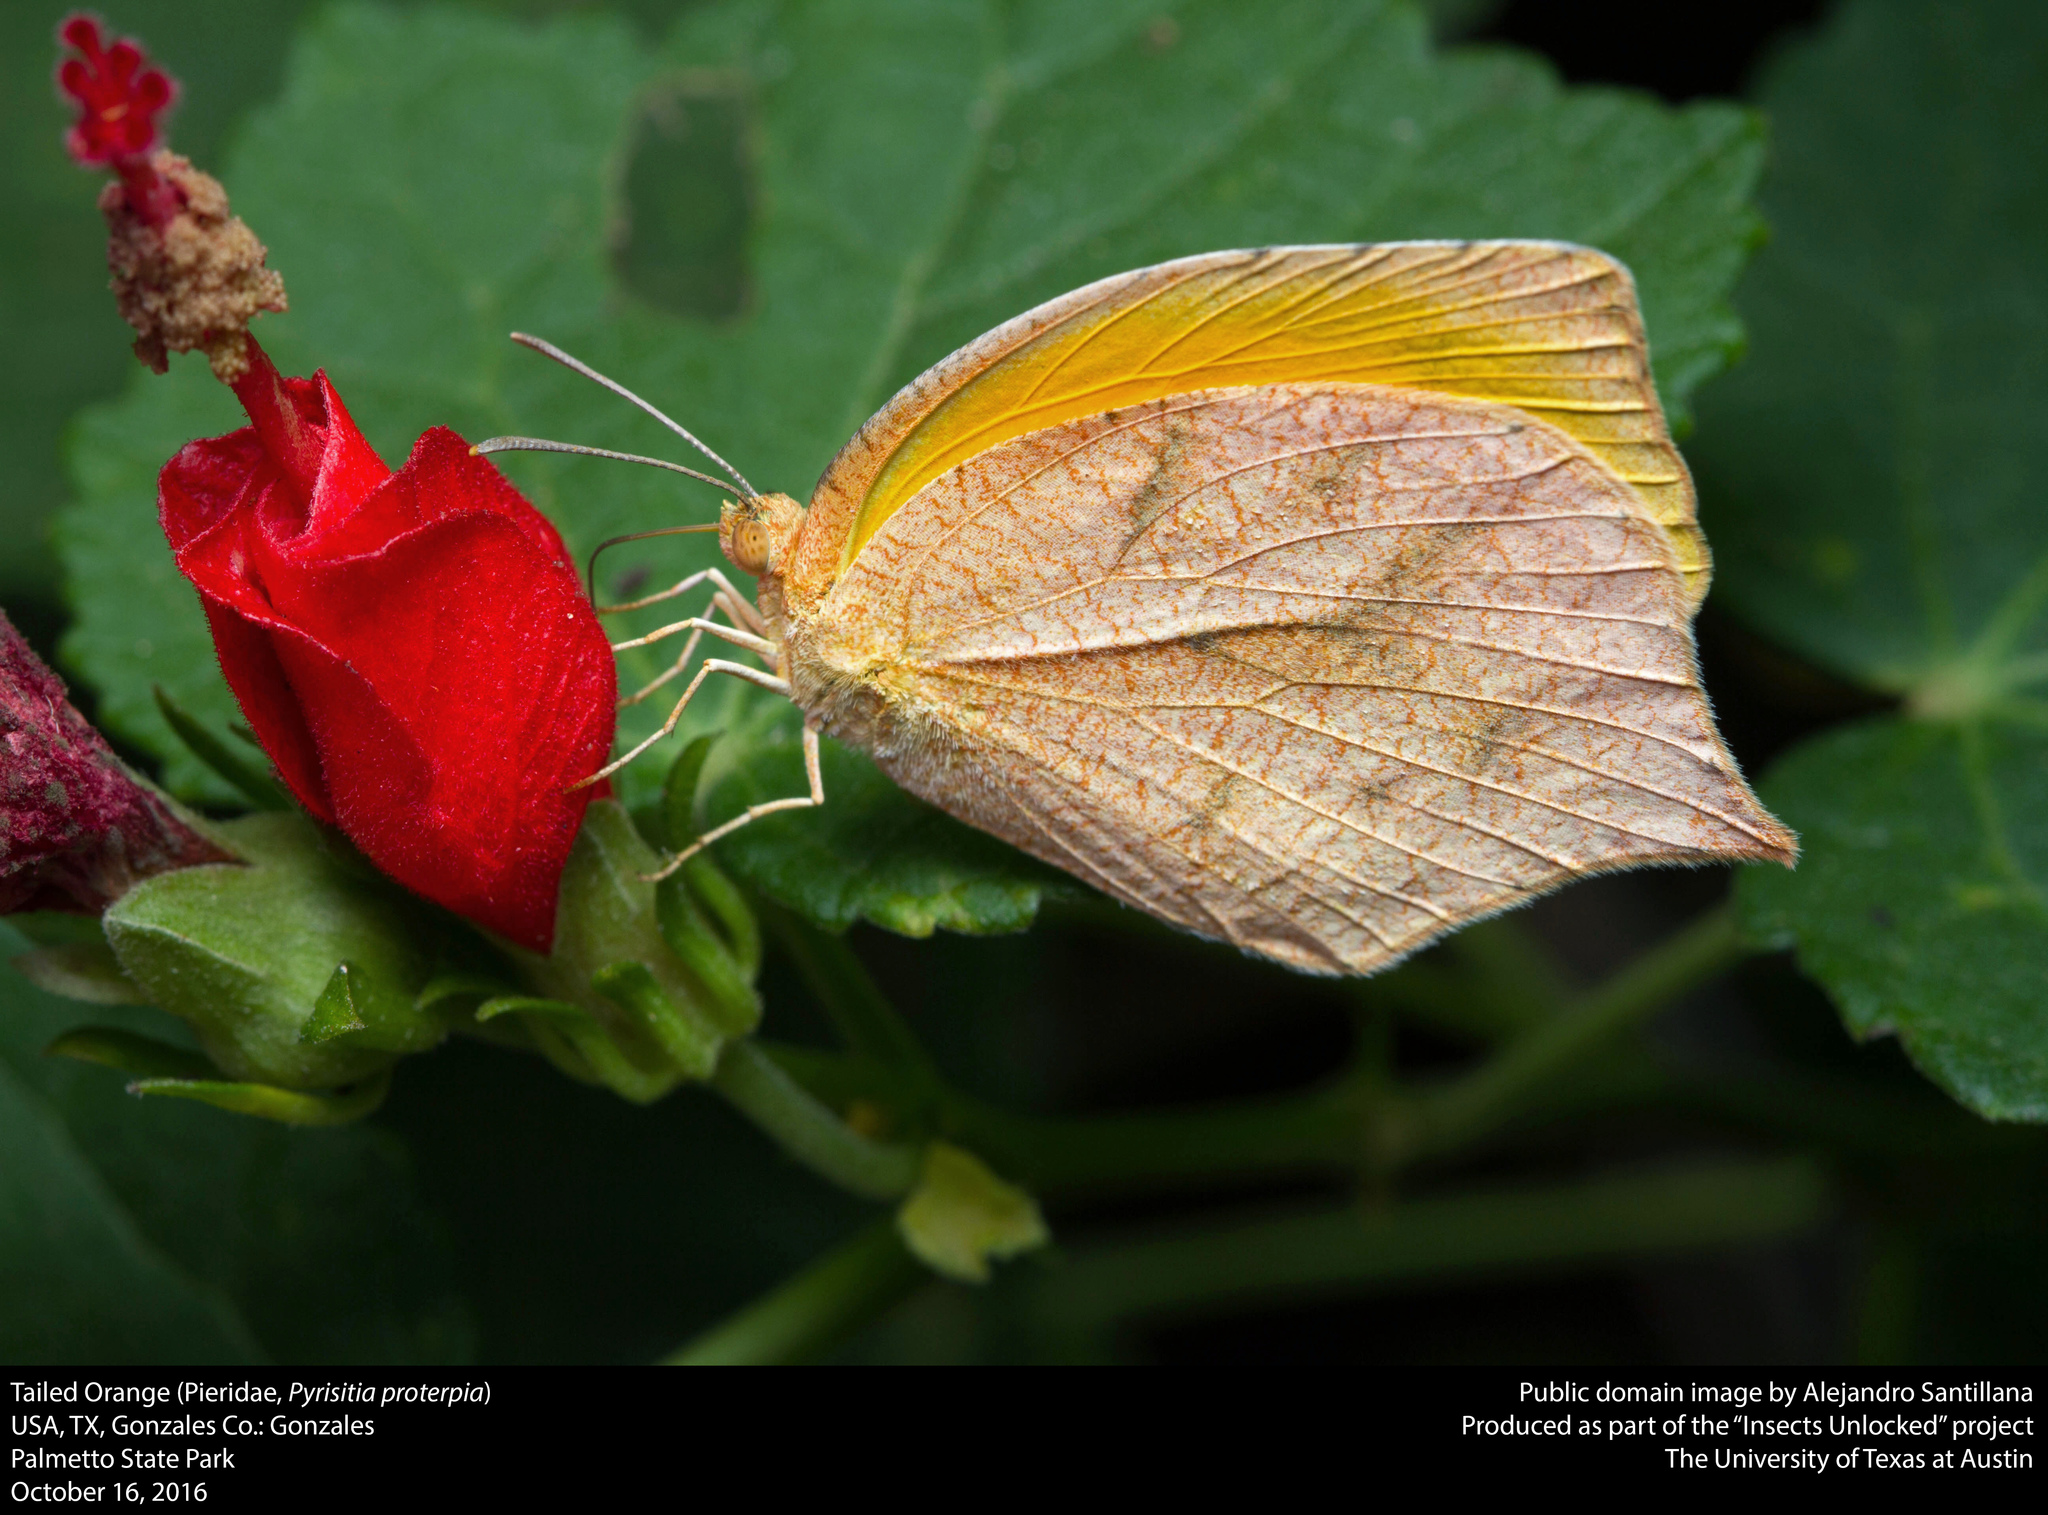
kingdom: Animalia
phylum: Arthropoda
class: Insecta
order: Lepidoptera
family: Pieridae
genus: Pyrisitia
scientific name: Pyrisitia proterpia
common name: Tailed orange
